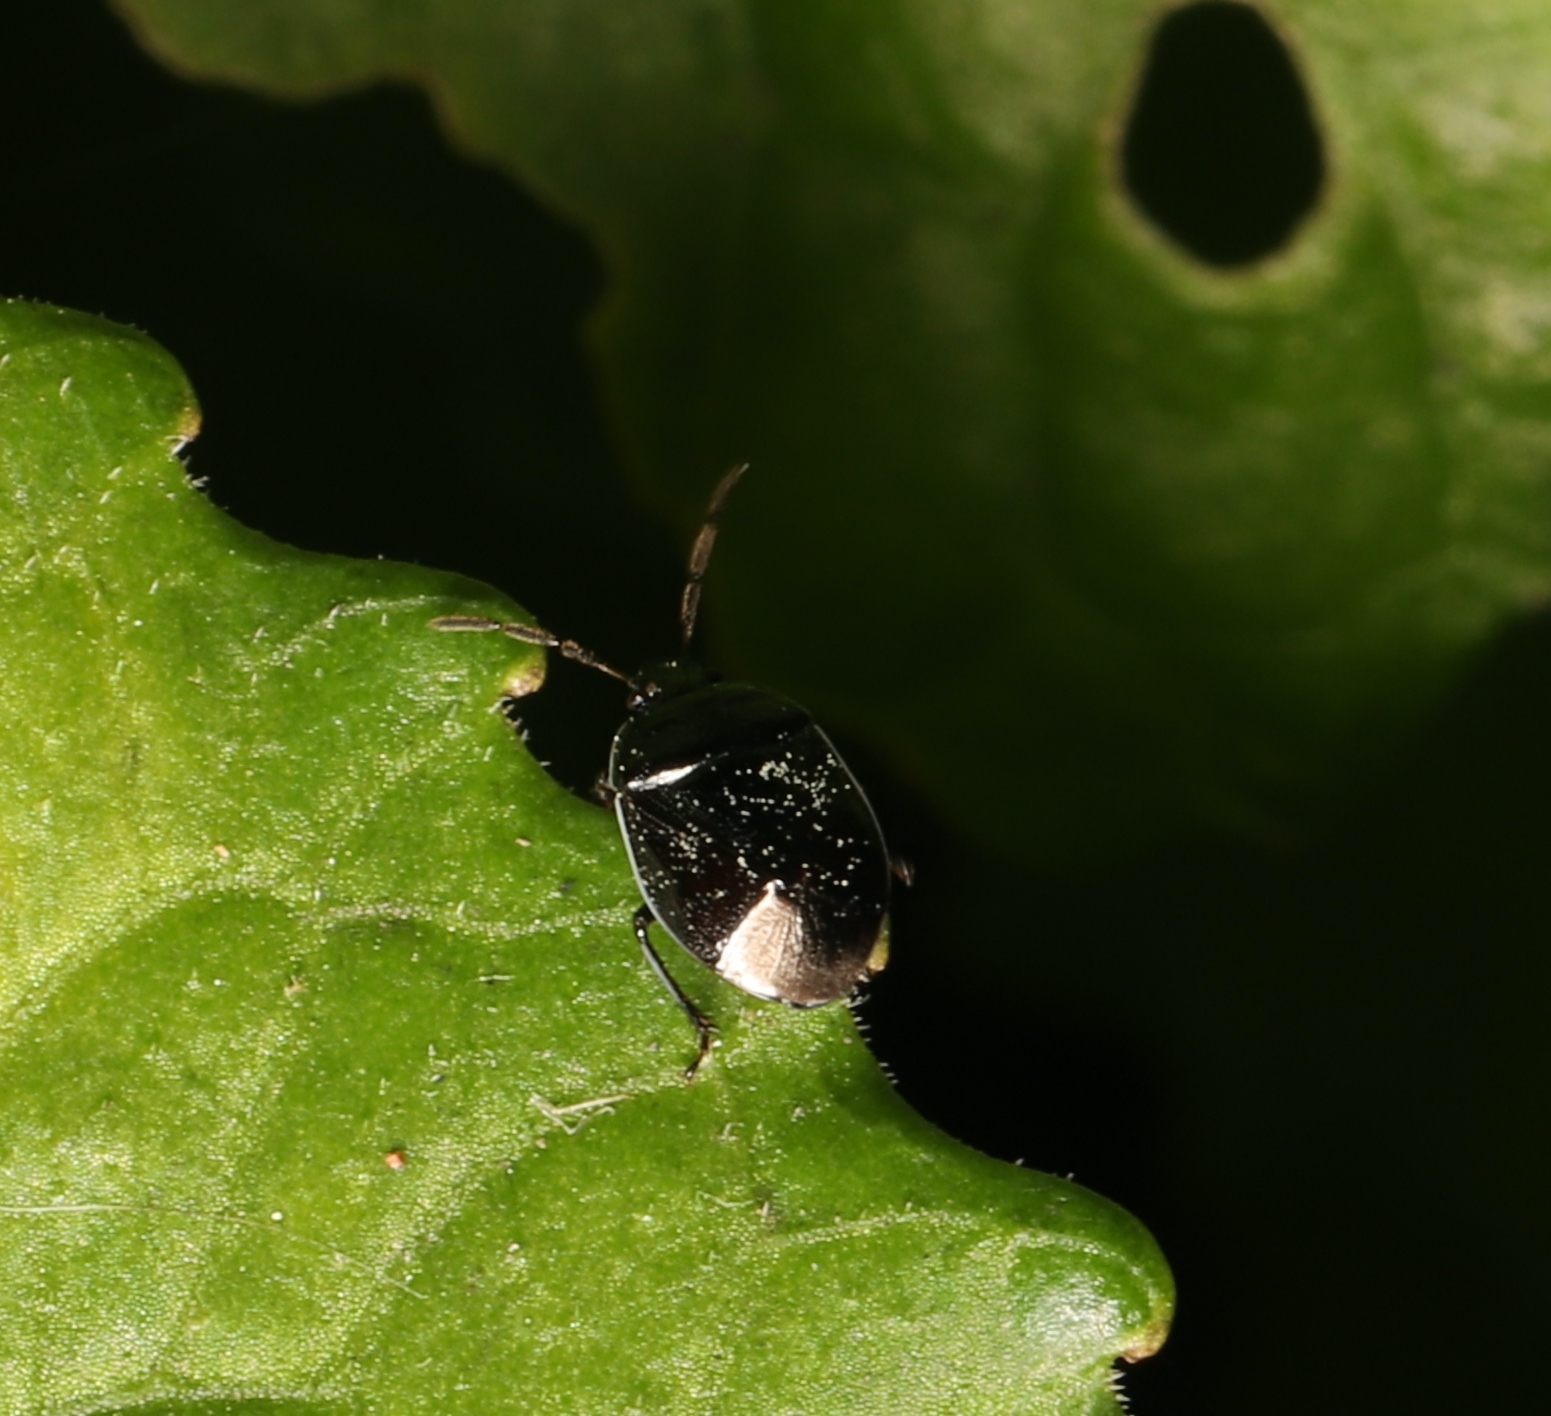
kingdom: Animalia
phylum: Arthropoda
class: Insecta
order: Hemiptera
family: Cydnidae
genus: Sehirus
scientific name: Sehirus cinctus
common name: White-margined burrower bug
